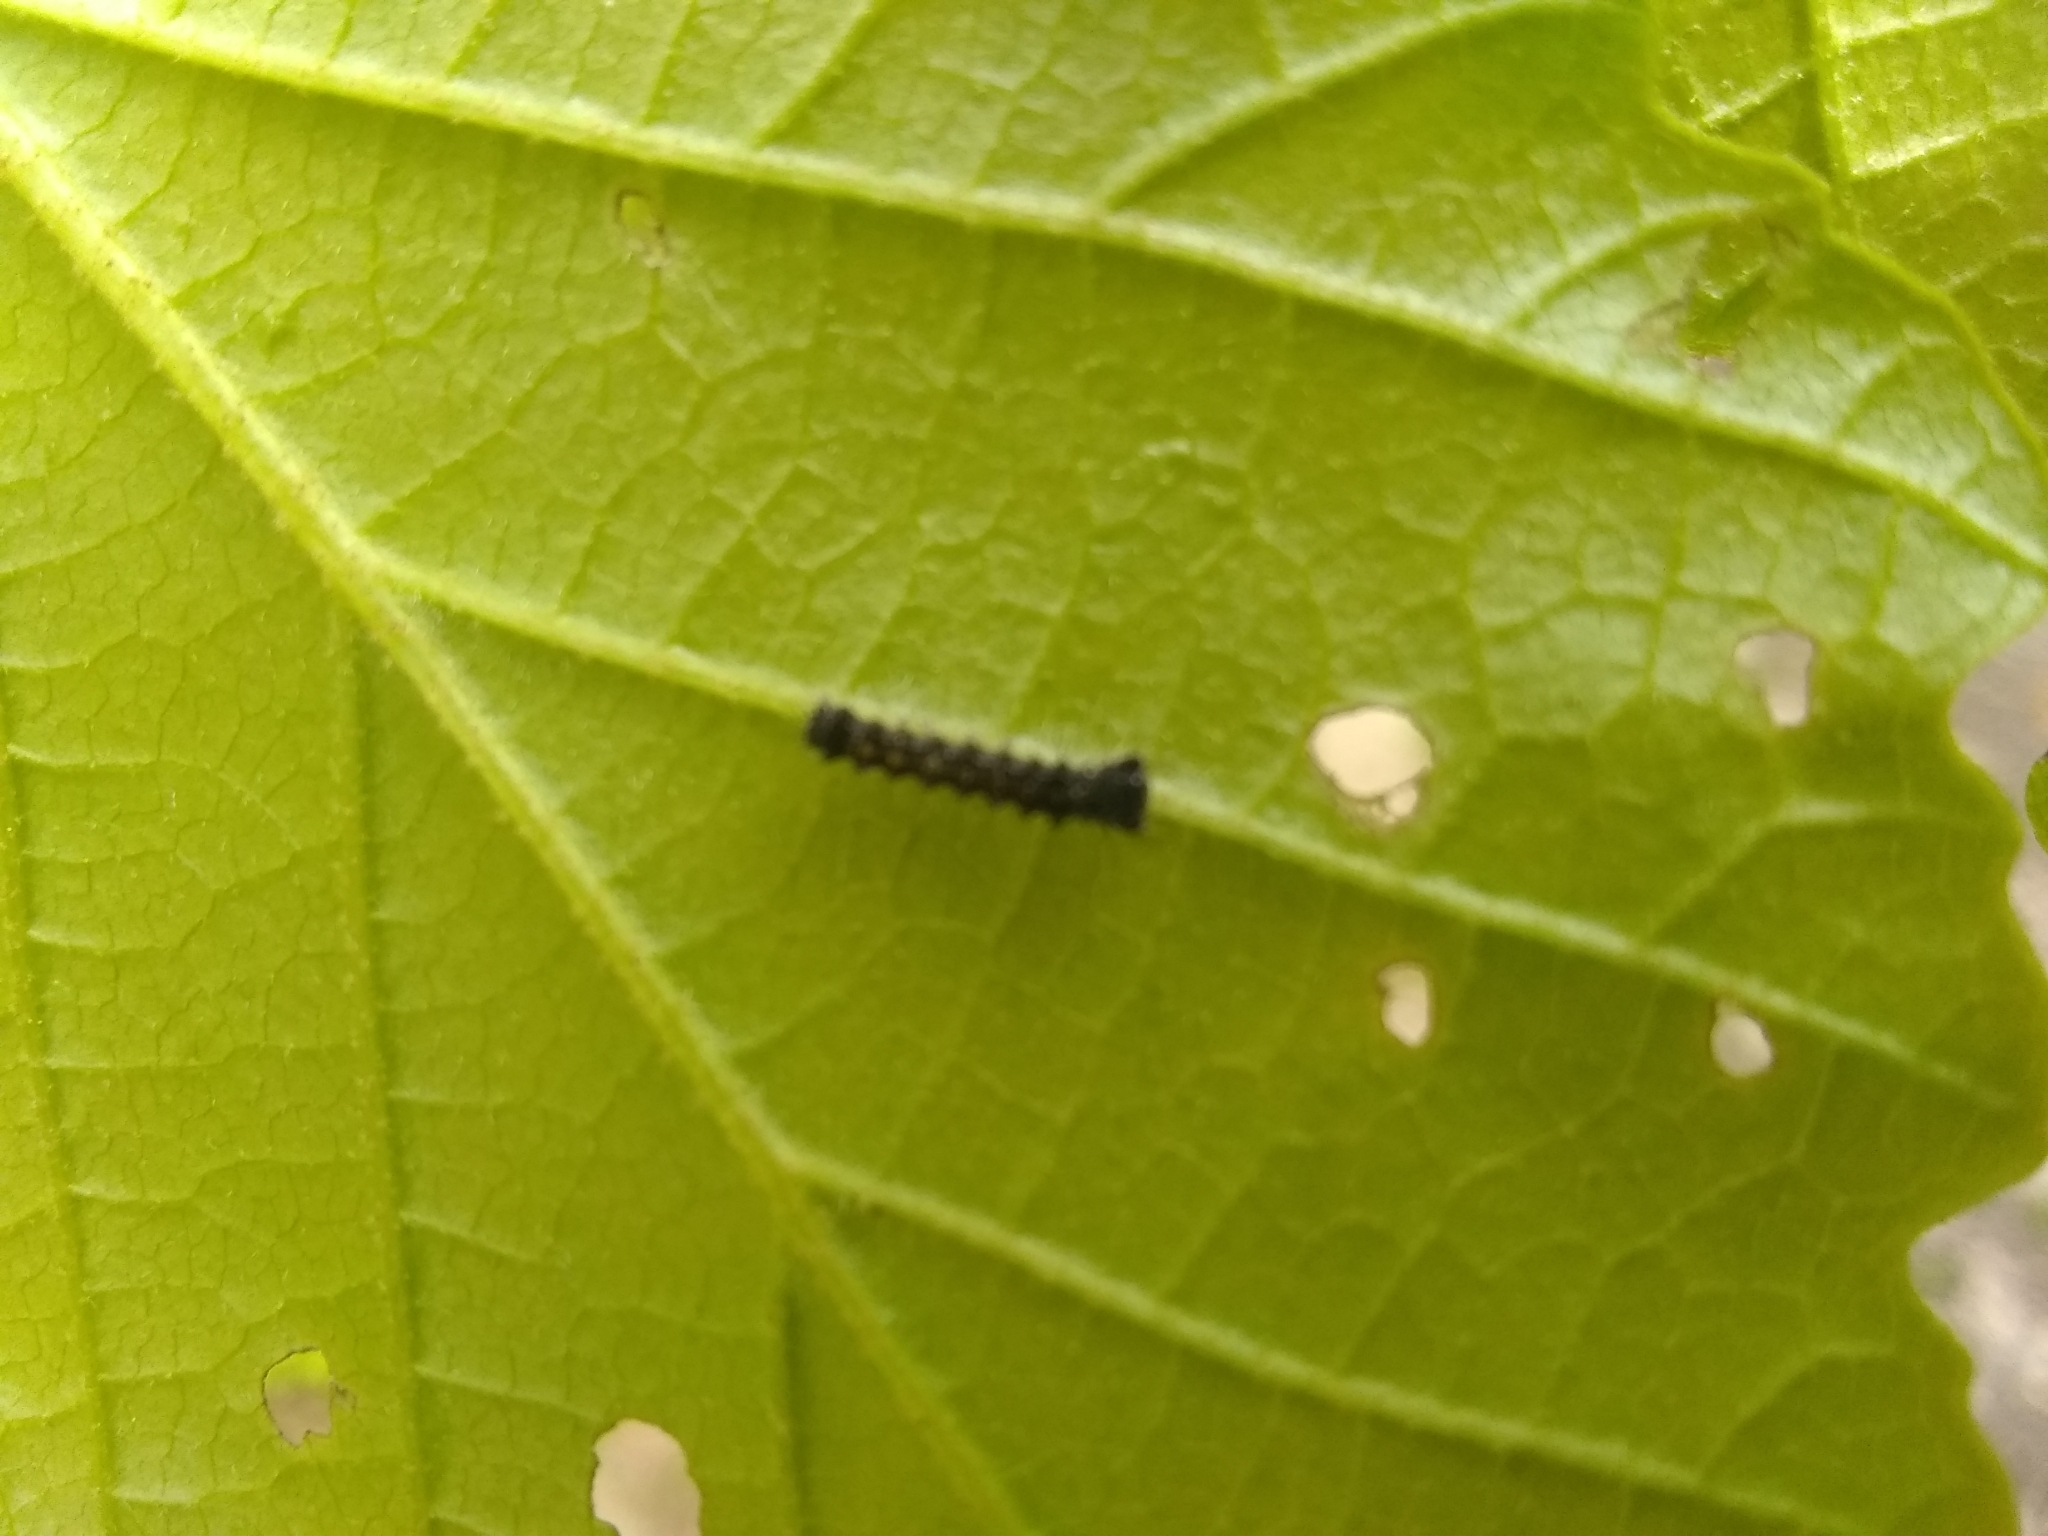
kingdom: Animalia
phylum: Arthropoda
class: Insecta
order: Lepidoptera
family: Erebidae
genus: Lymantria
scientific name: Lymantria dispar
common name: Gypsy moth
